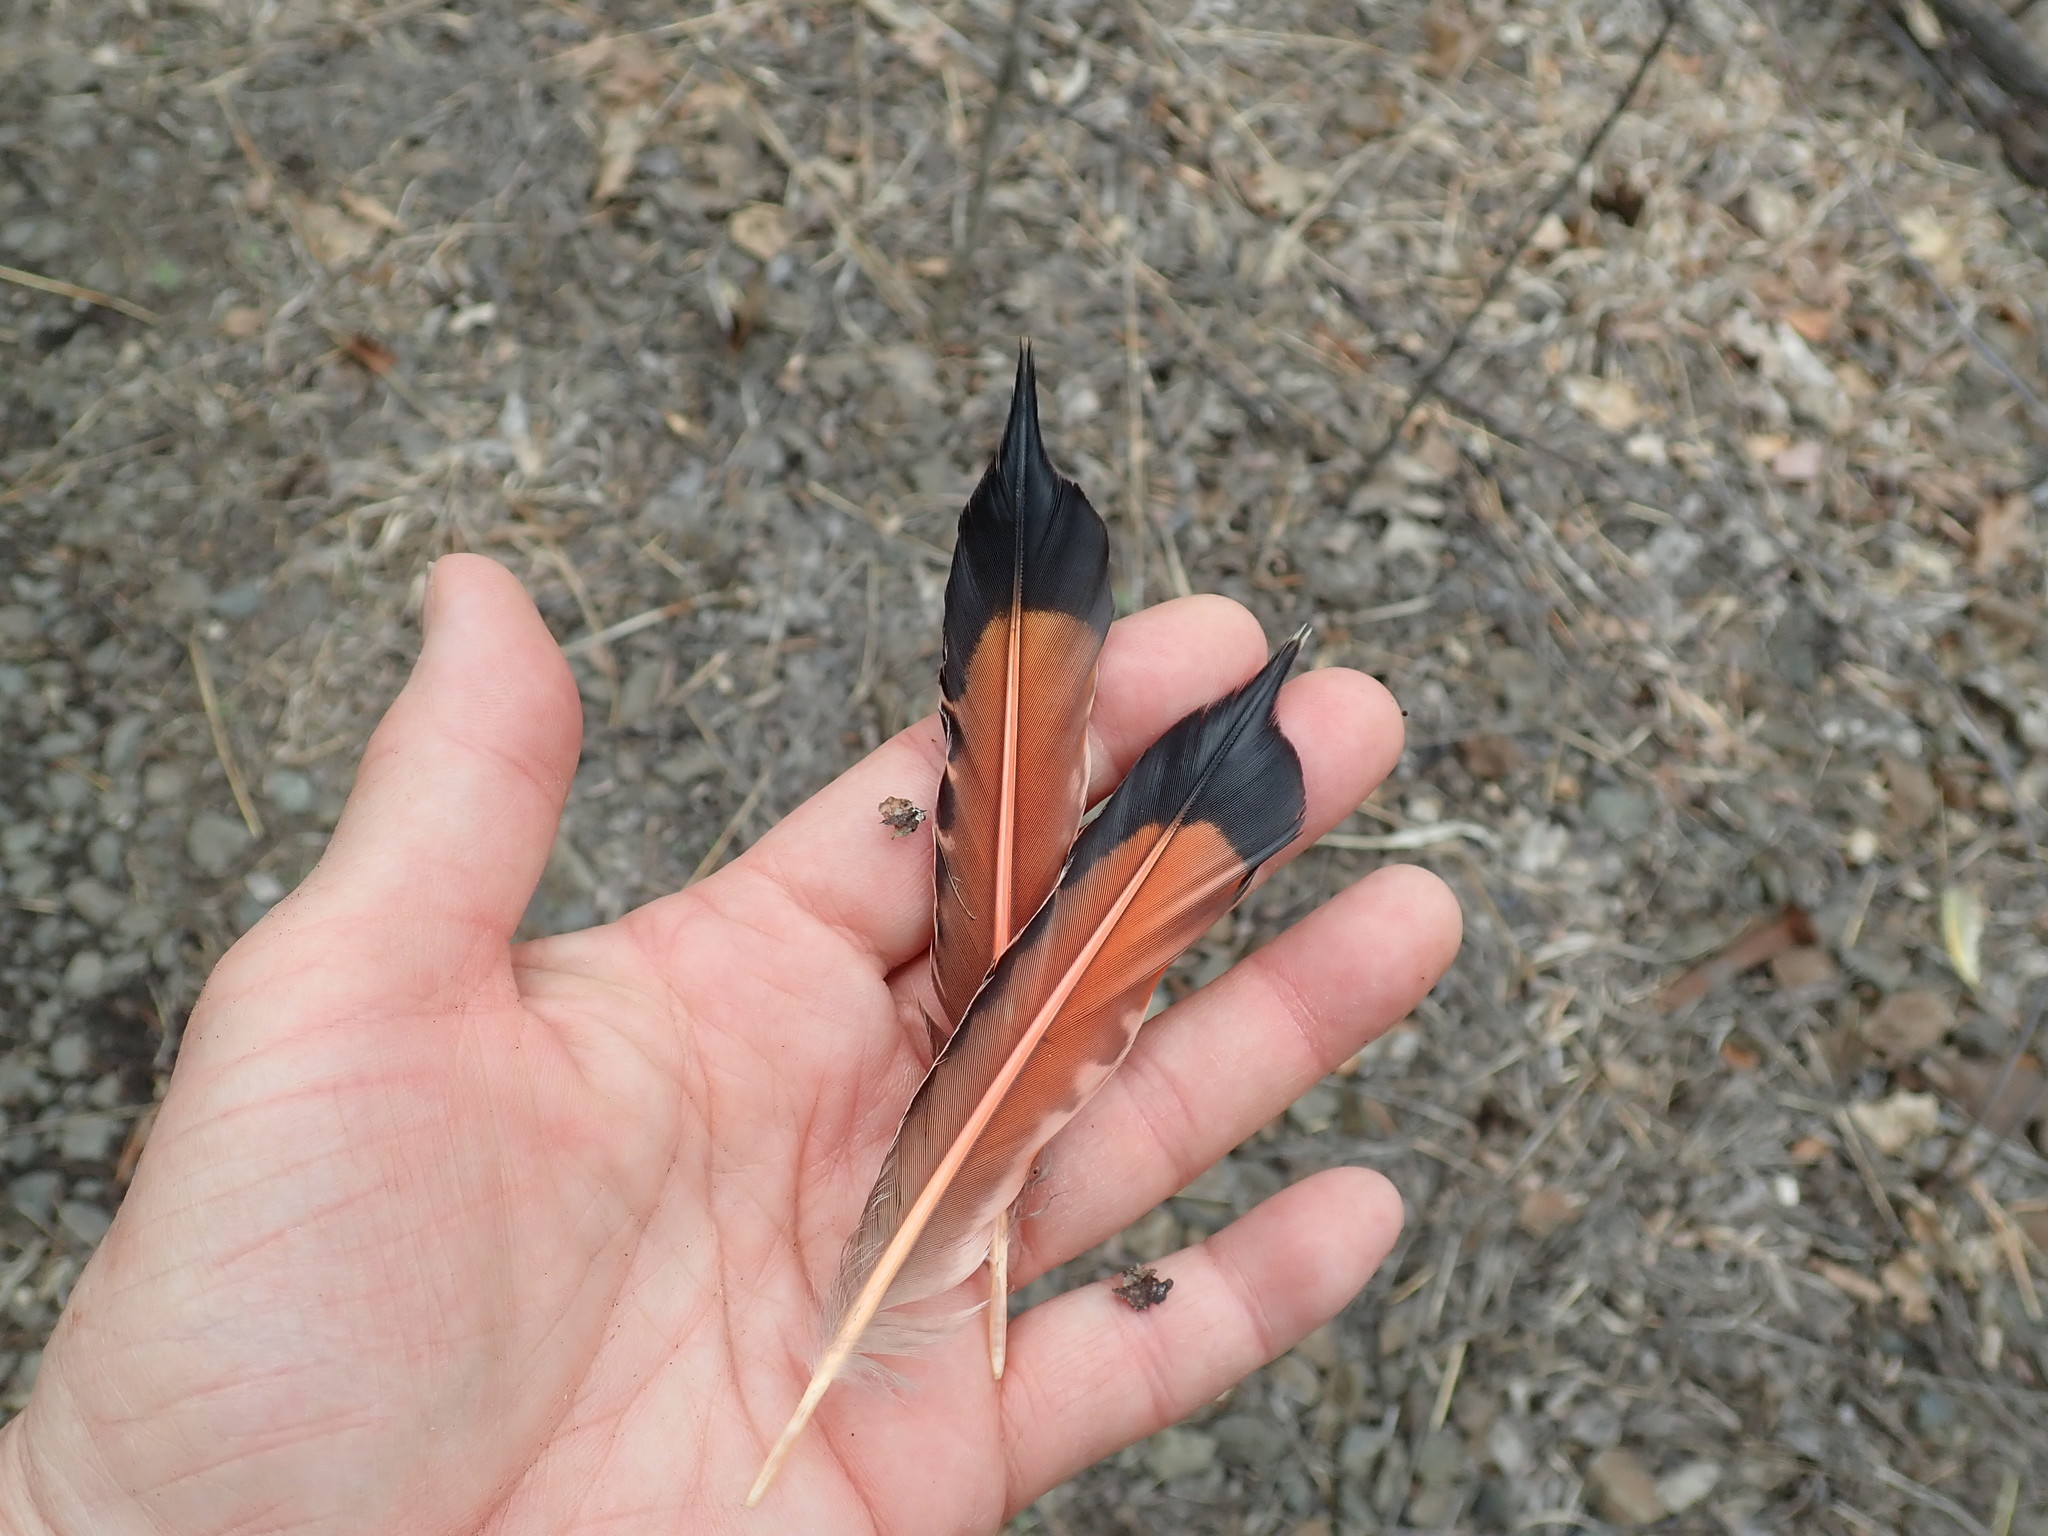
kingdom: Animalia
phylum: Chordata
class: Aves
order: Piciformes
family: Picidae
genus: Colaptes
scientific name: Colaptes auratus
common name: Northern flicker
